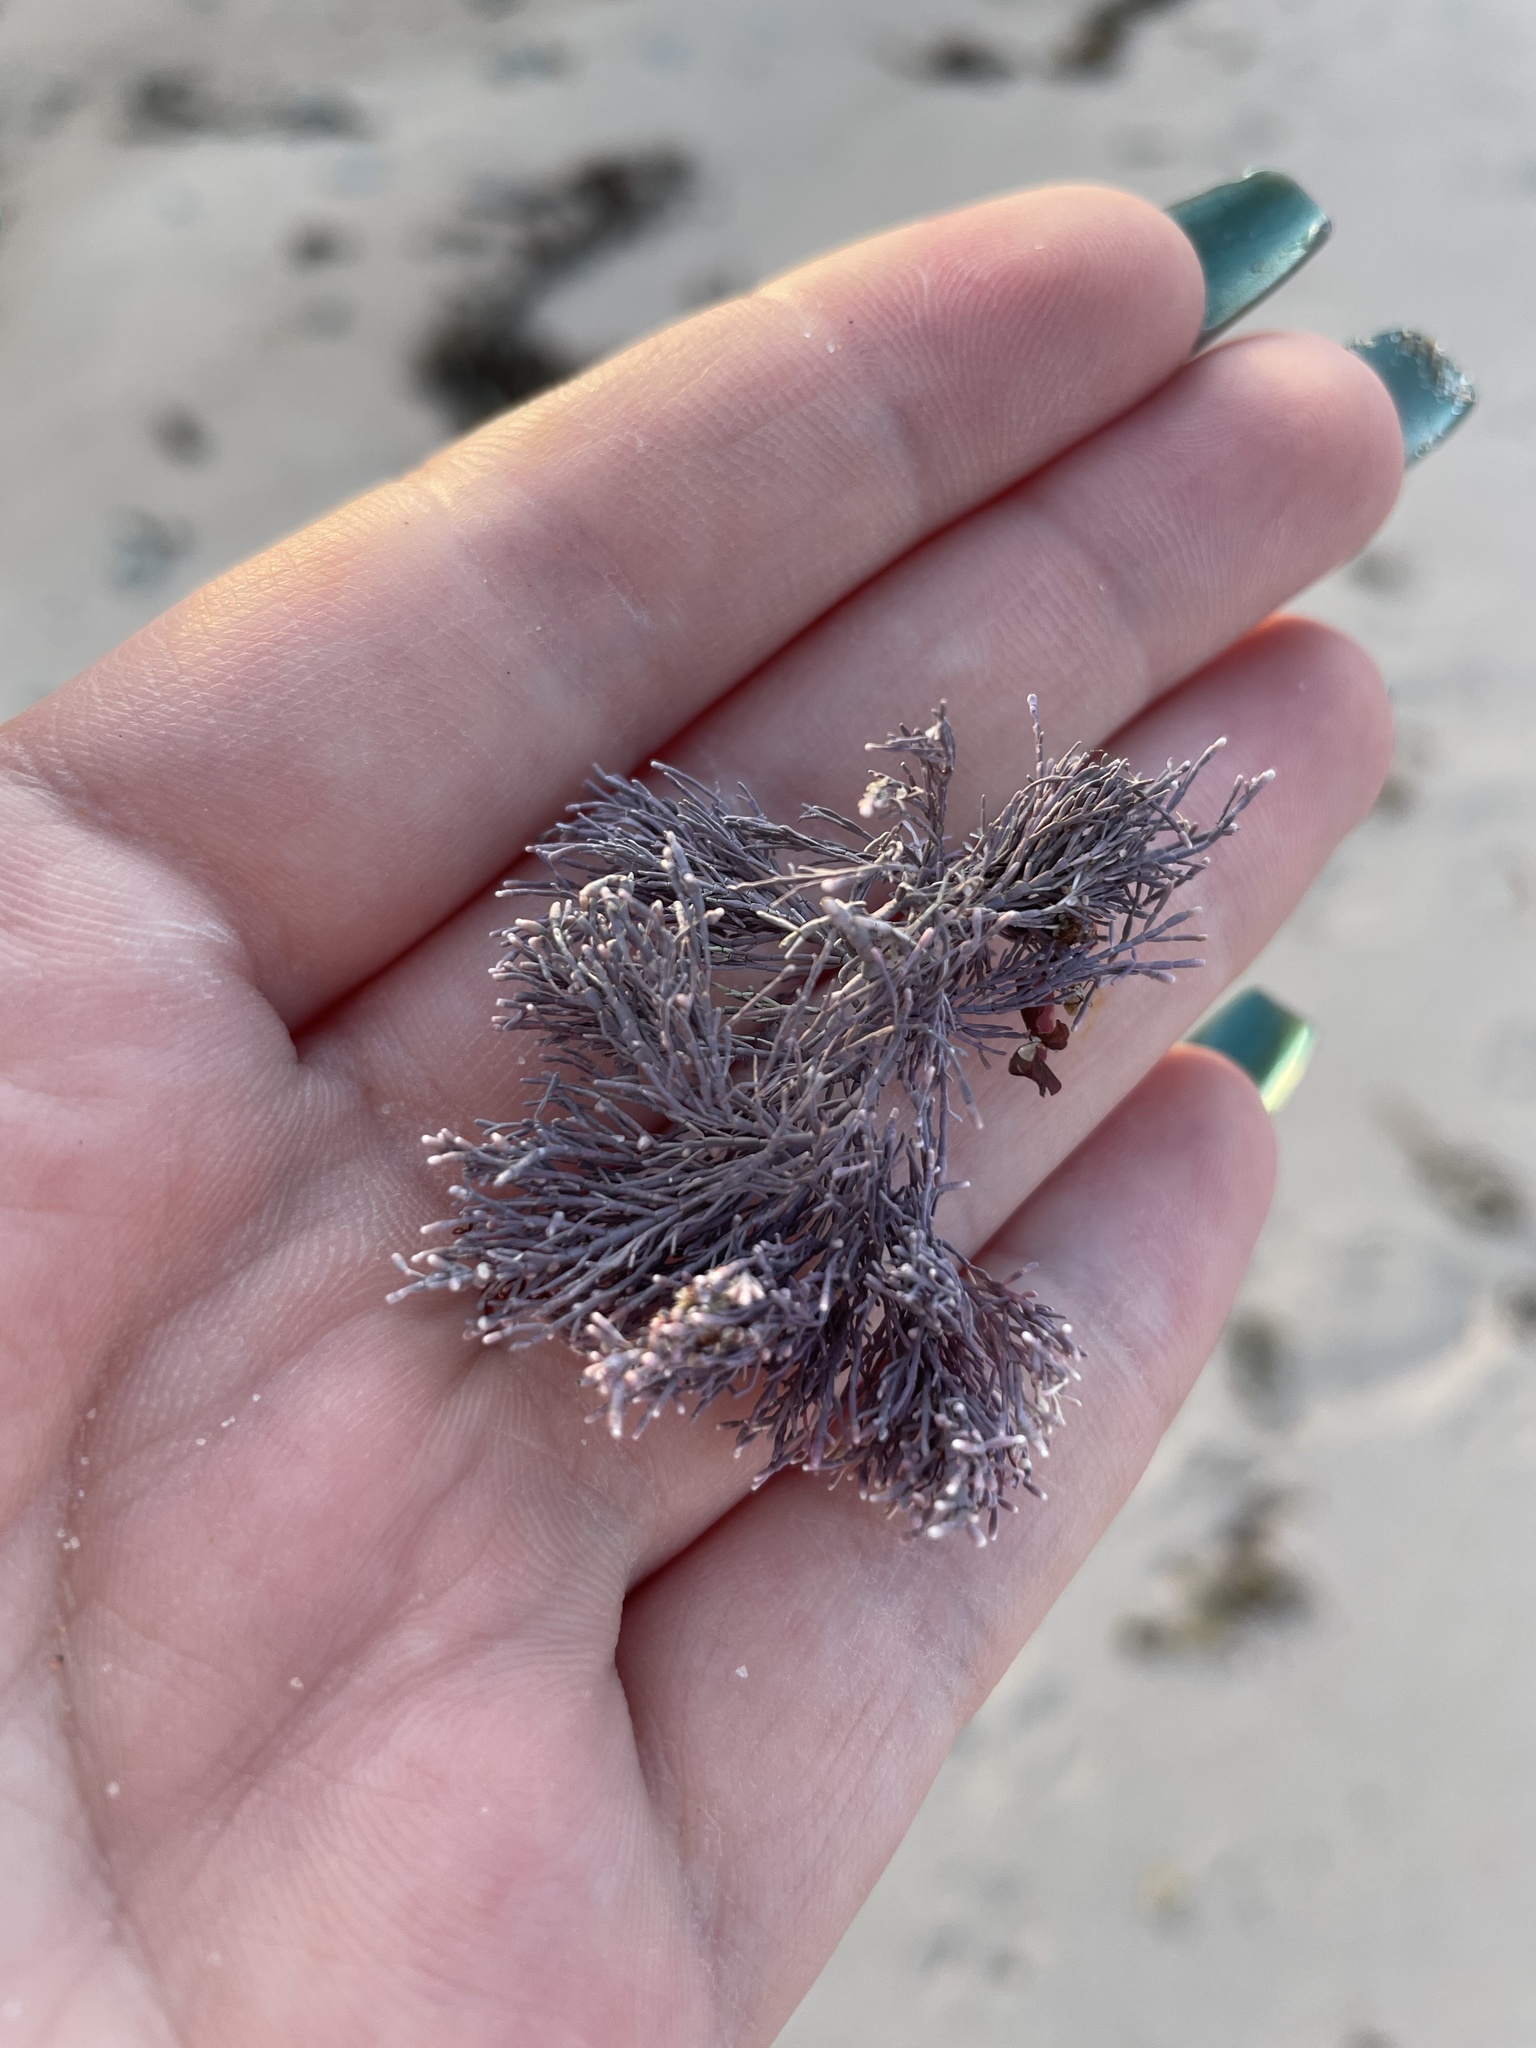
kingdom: Plantae
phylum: Rhodophyta
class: Florideophyceae
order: Corallinales
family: Corallinaceae
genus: Corallina
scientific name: Corallina officinalis
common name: Coral weed
